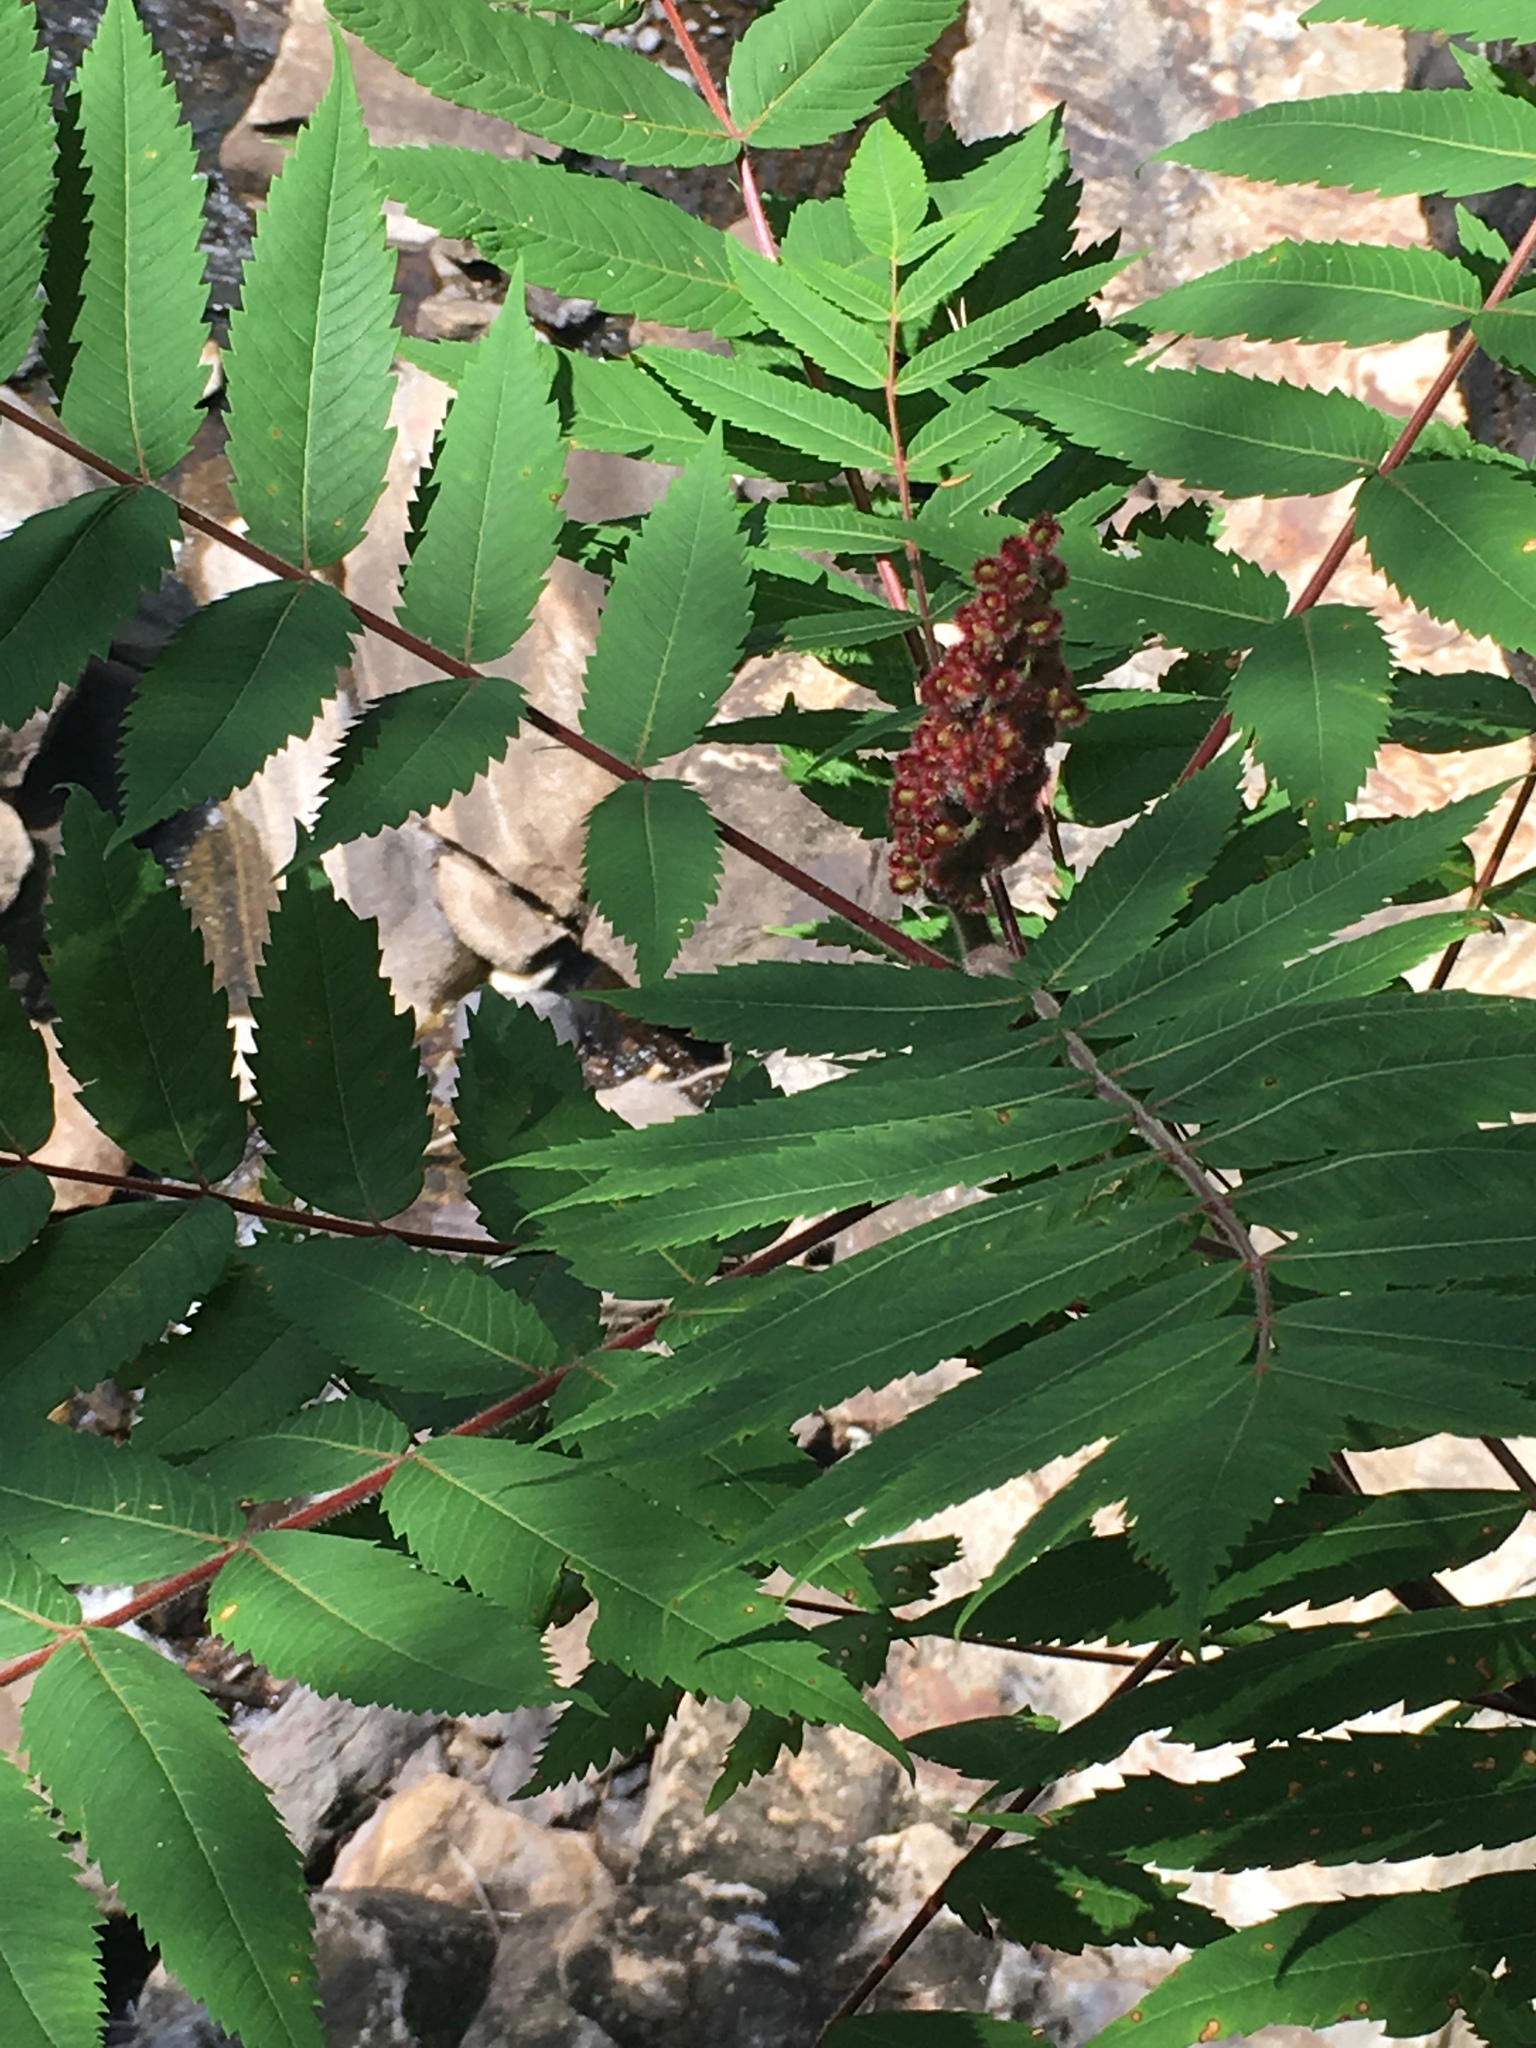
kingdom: Plantae
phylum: Tracheophyta
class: Magnoliopsida
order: Sapindales
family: Anacardiaceae
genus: Rhus
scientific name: Rhus typhina
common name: Staghorn sumac
